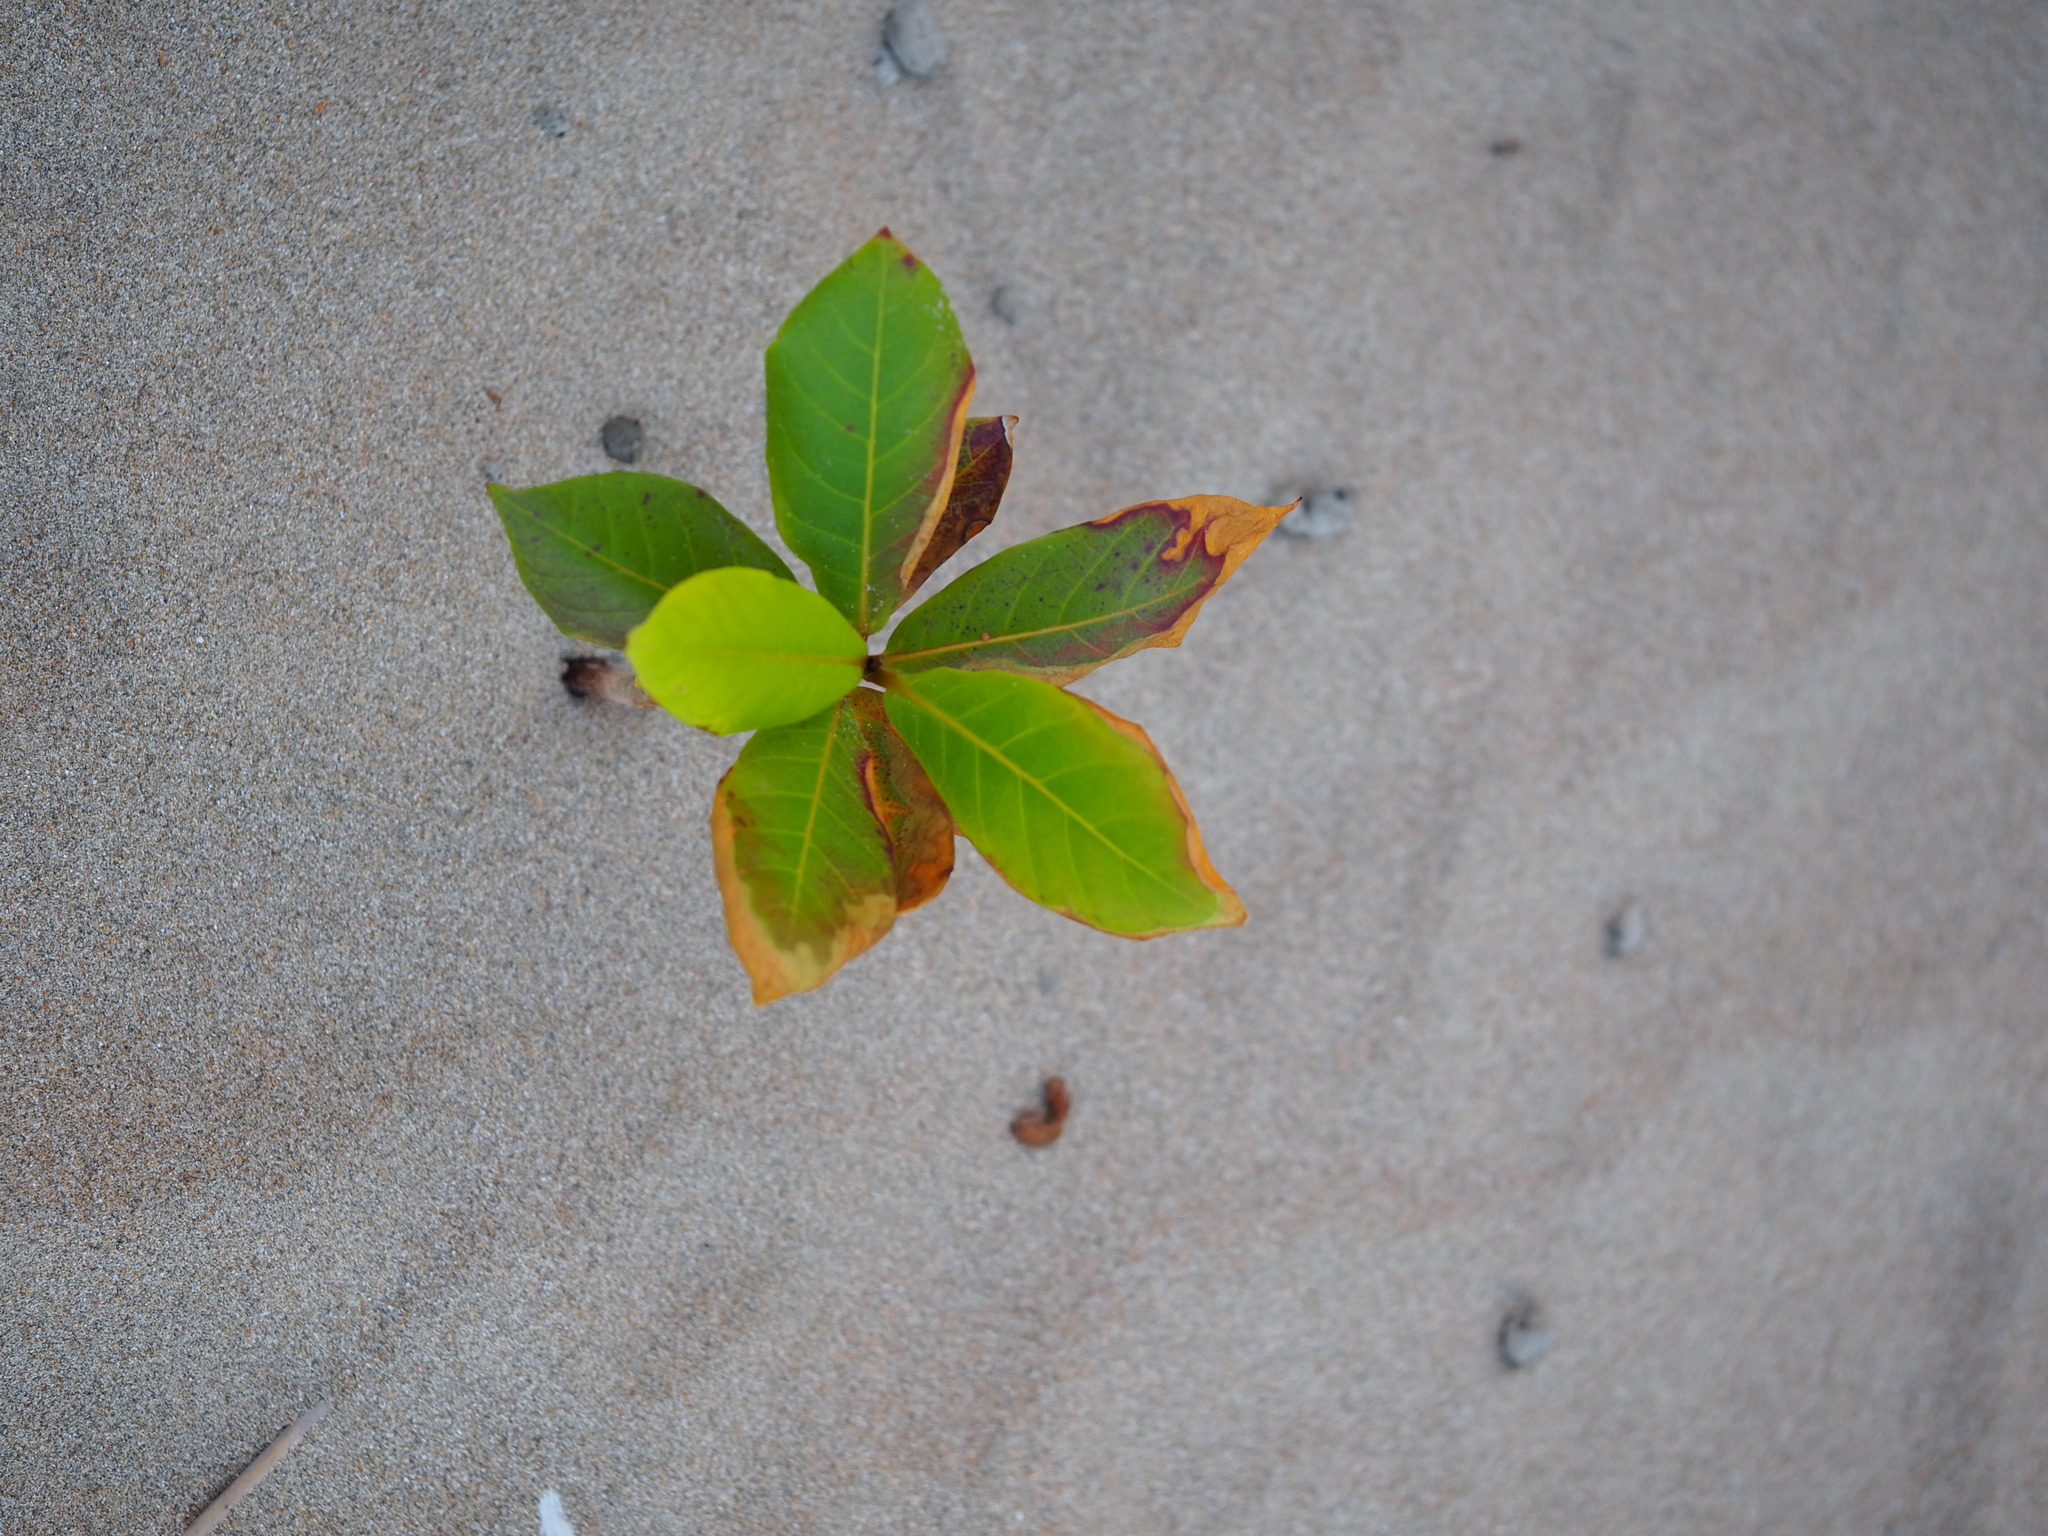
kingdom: Plantae
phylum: Tracheophyta
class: Magnoliopsida
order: Myrtales
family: Combretaceae
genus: Terminalia
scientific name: Terminalia catappa
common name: Tropical almond
